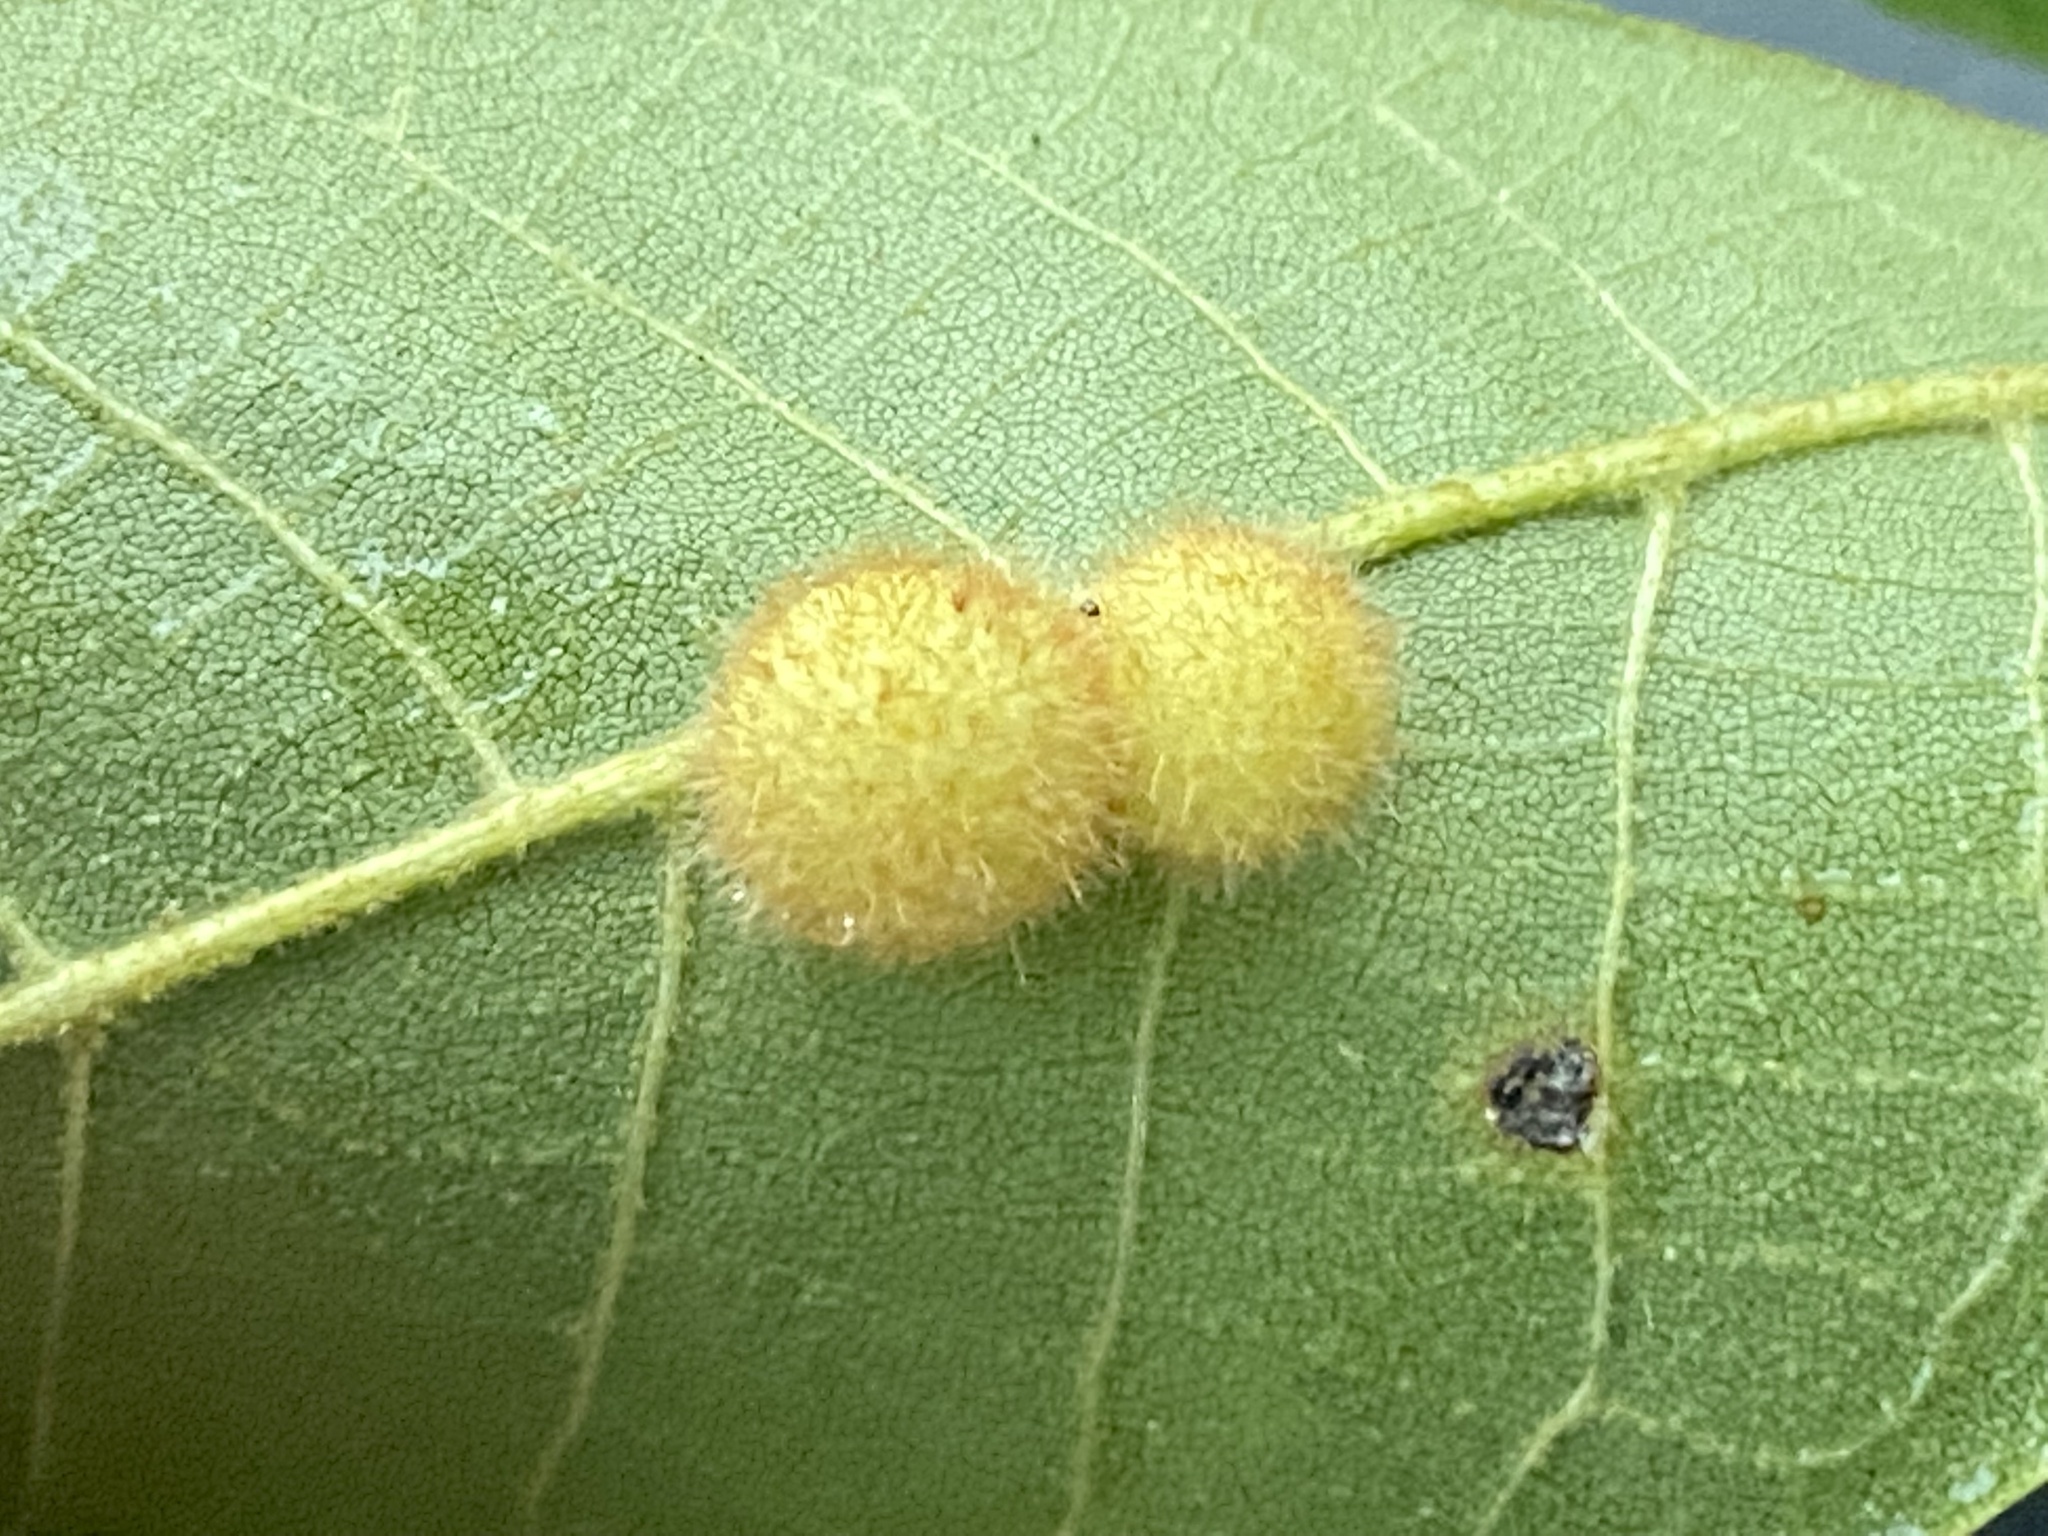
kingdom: Animalia
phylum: Arthropoda
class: Insecta
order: Diptera
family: Cecidomyiidae
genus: Caryomyia
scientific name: Caryomyia spherica
